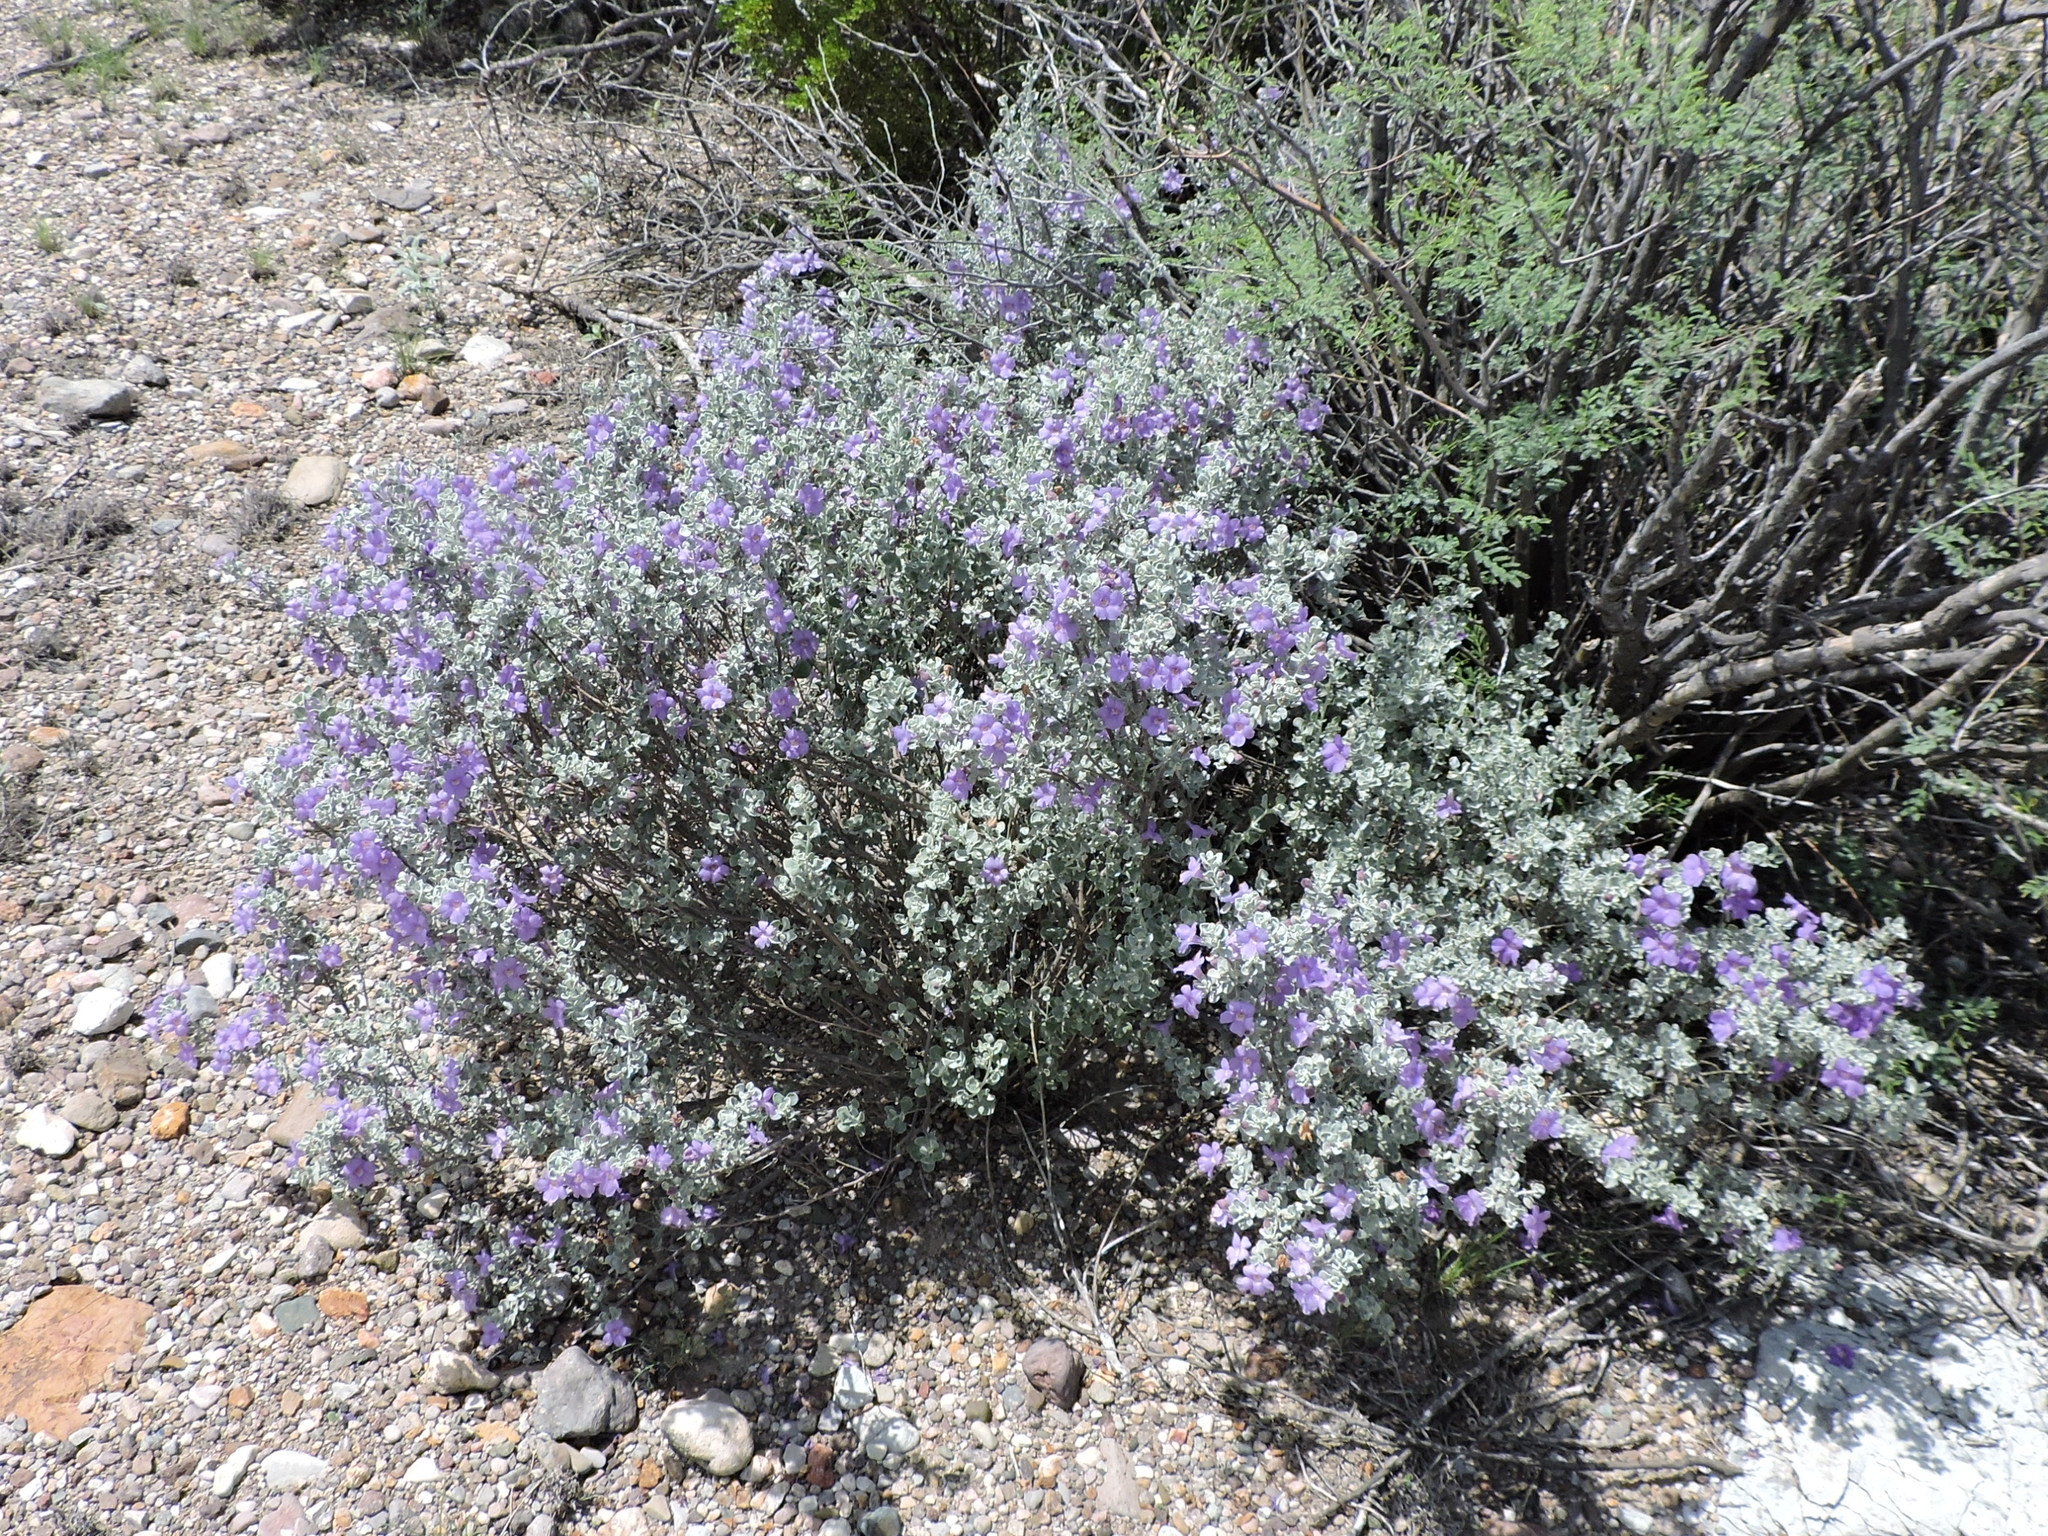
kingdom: Plantae
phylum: Tracheophyta
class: Magnoliopsida
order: Lamiales
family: Scrophulariaceae
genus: Leucophyllum
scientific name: Leucophyllum minus
